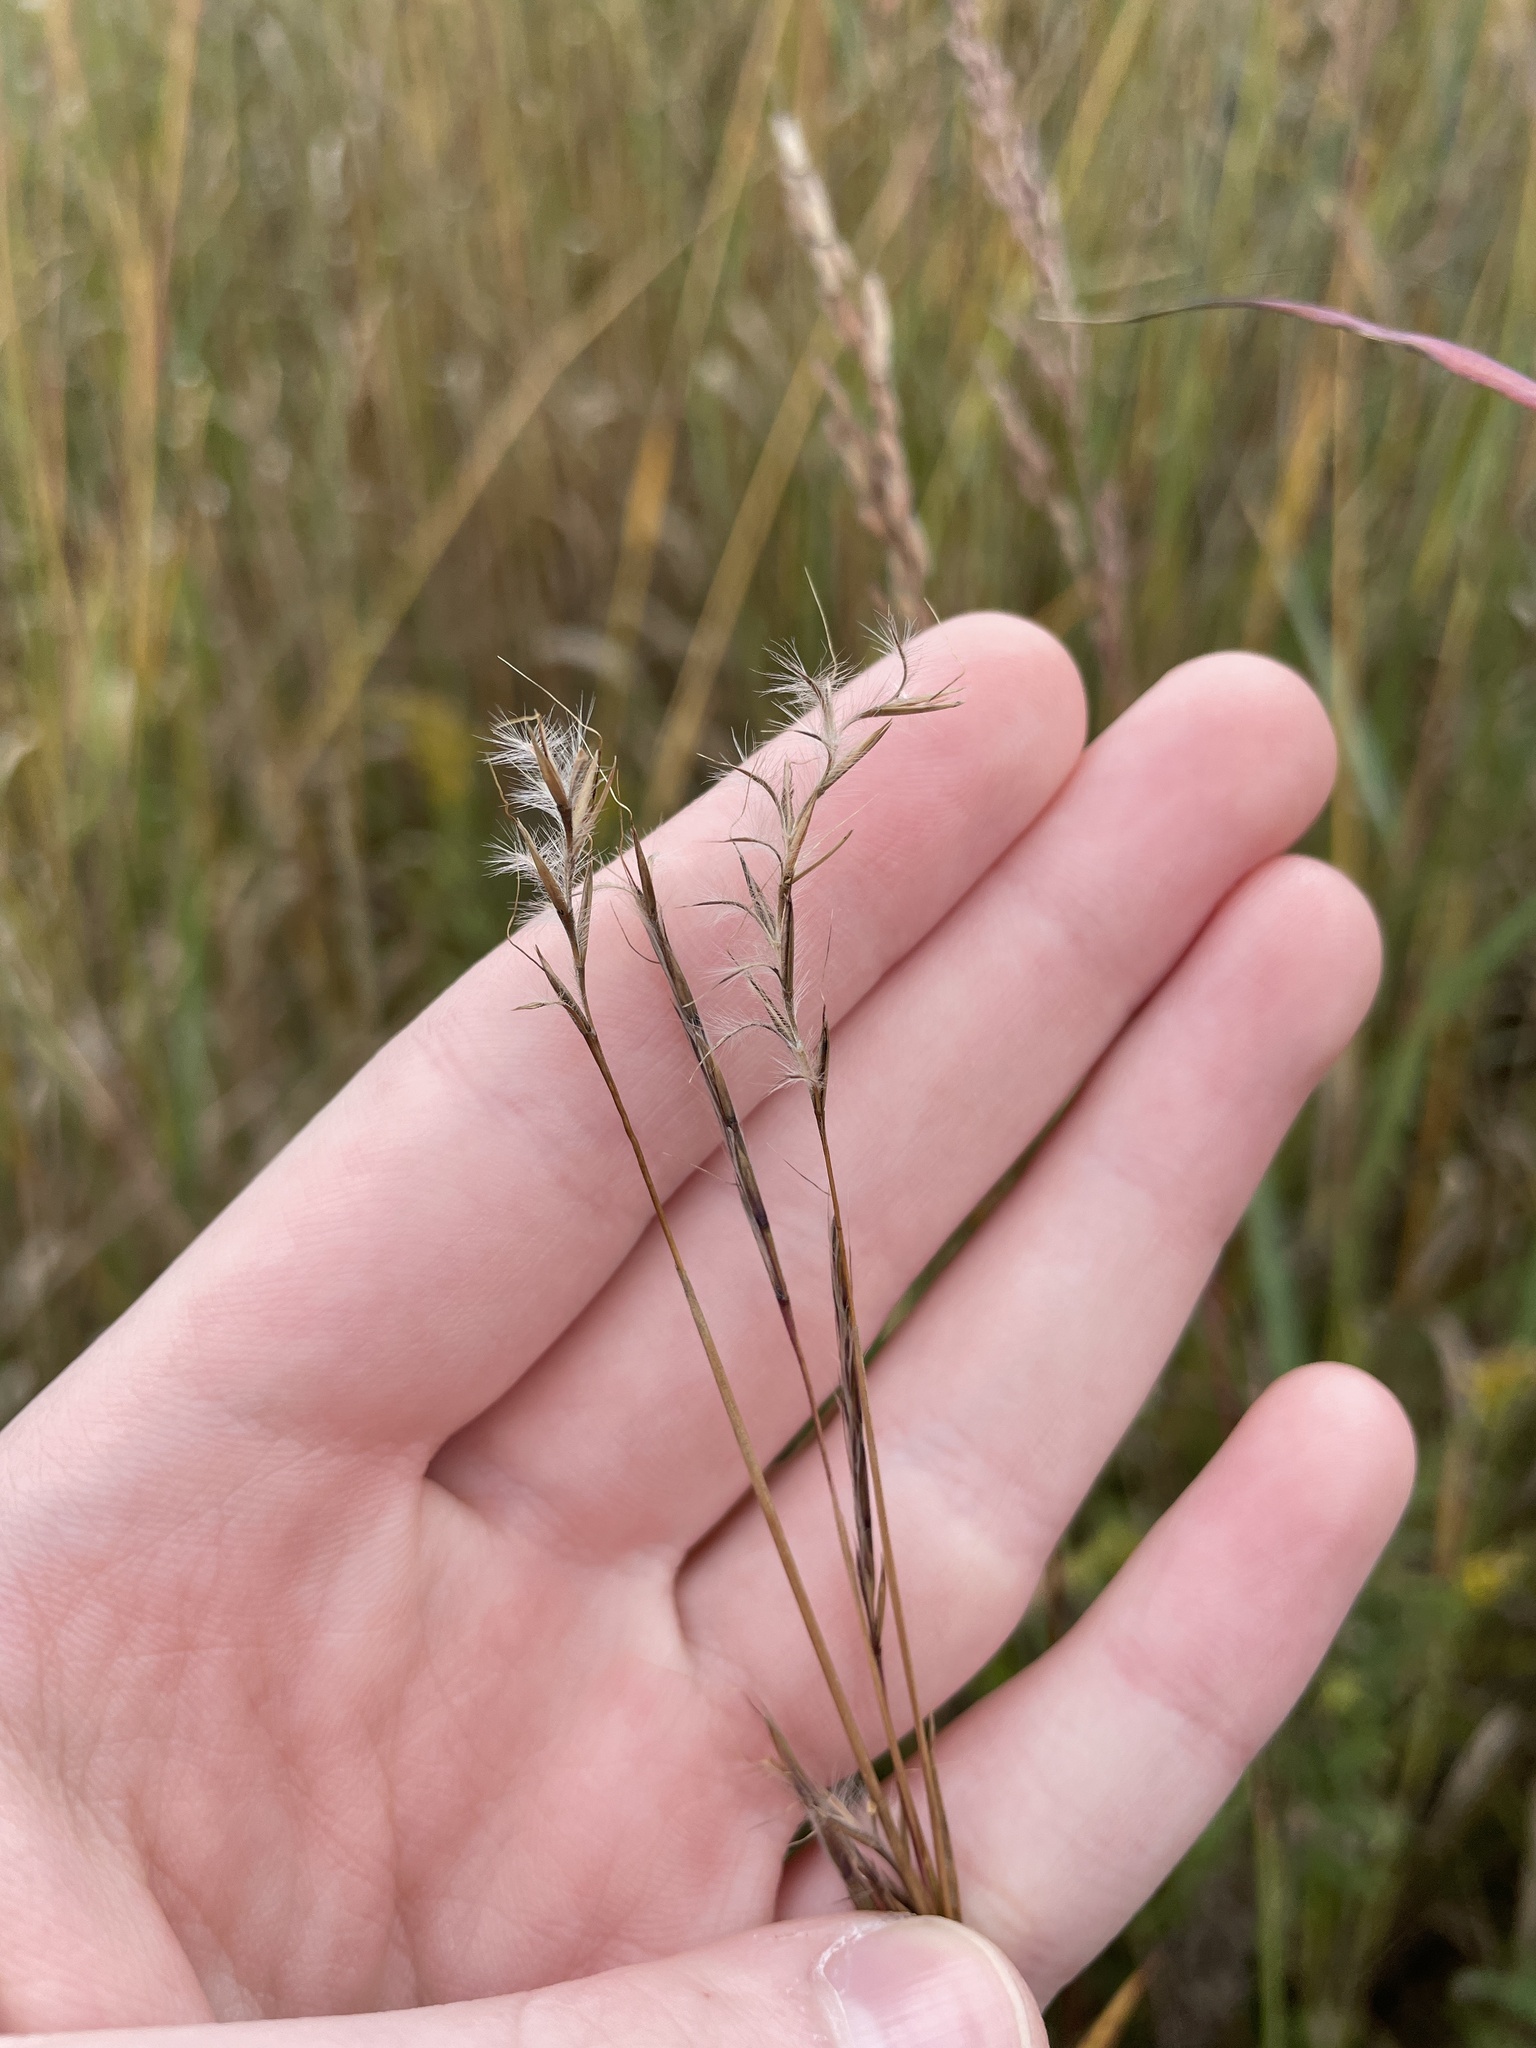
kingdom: Plantae
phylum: Tracheophyta
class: Liliopsida
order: Poales
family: Poaceae
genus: Schizachyrium
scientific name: Schizachyrium scoparium
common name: Little bluestem
